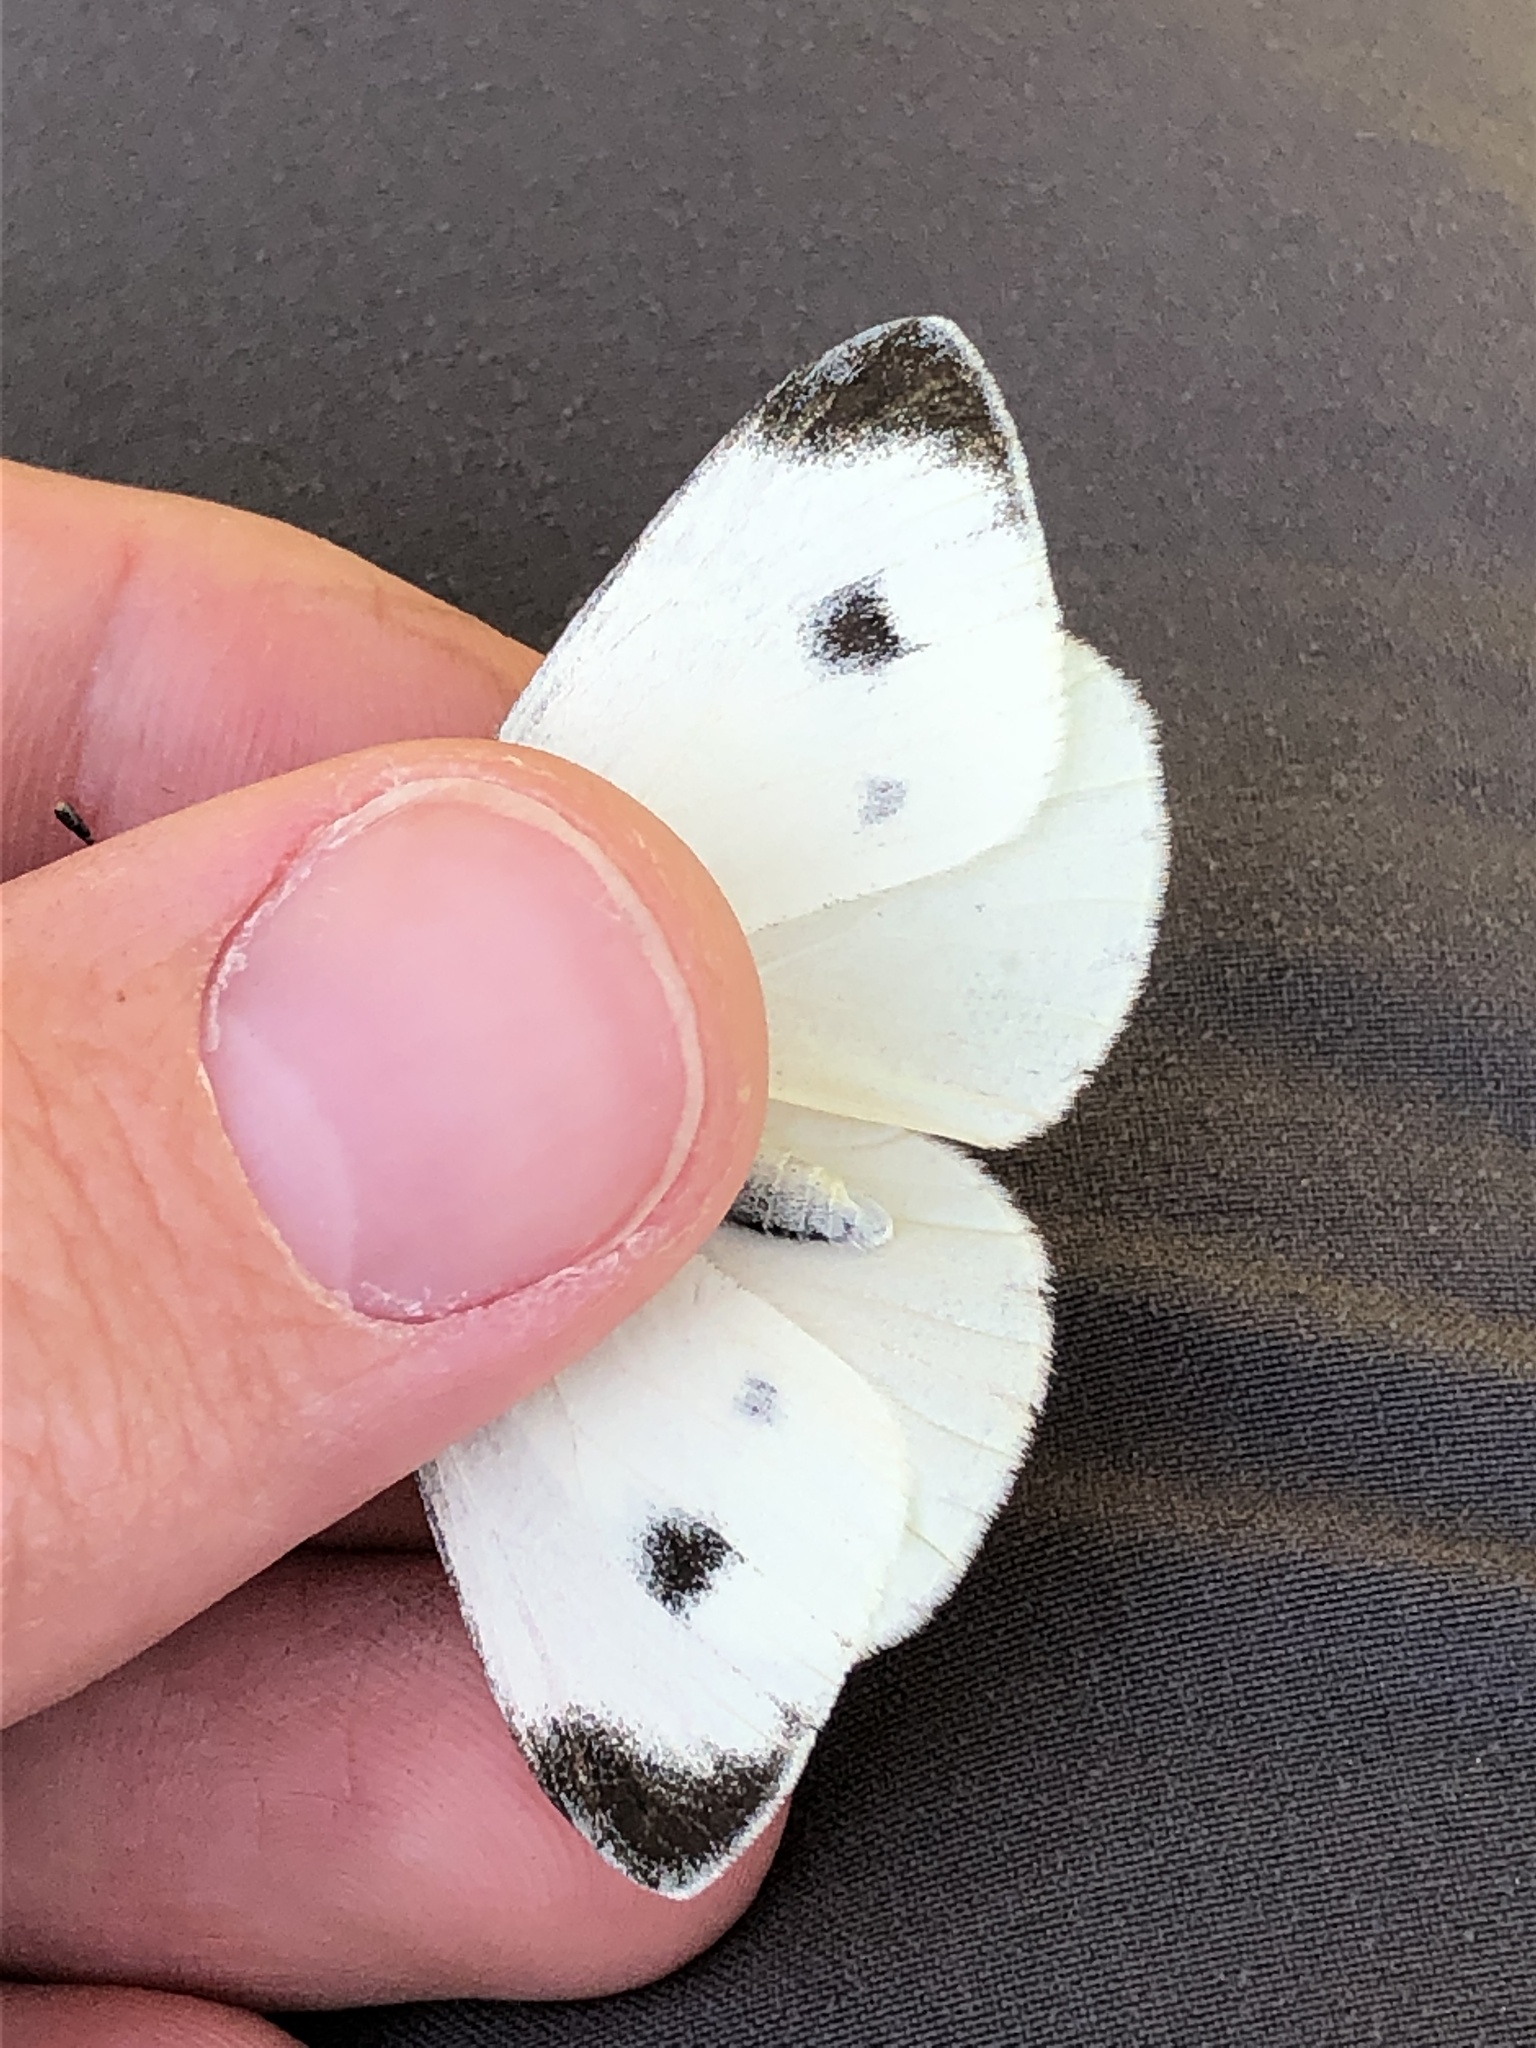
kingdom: Animalia
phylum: Arthropoda
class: Insecta
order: Lepidoptera
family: Pieridae
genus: Pieris
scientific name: Pieris mannii
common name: Southern small white
